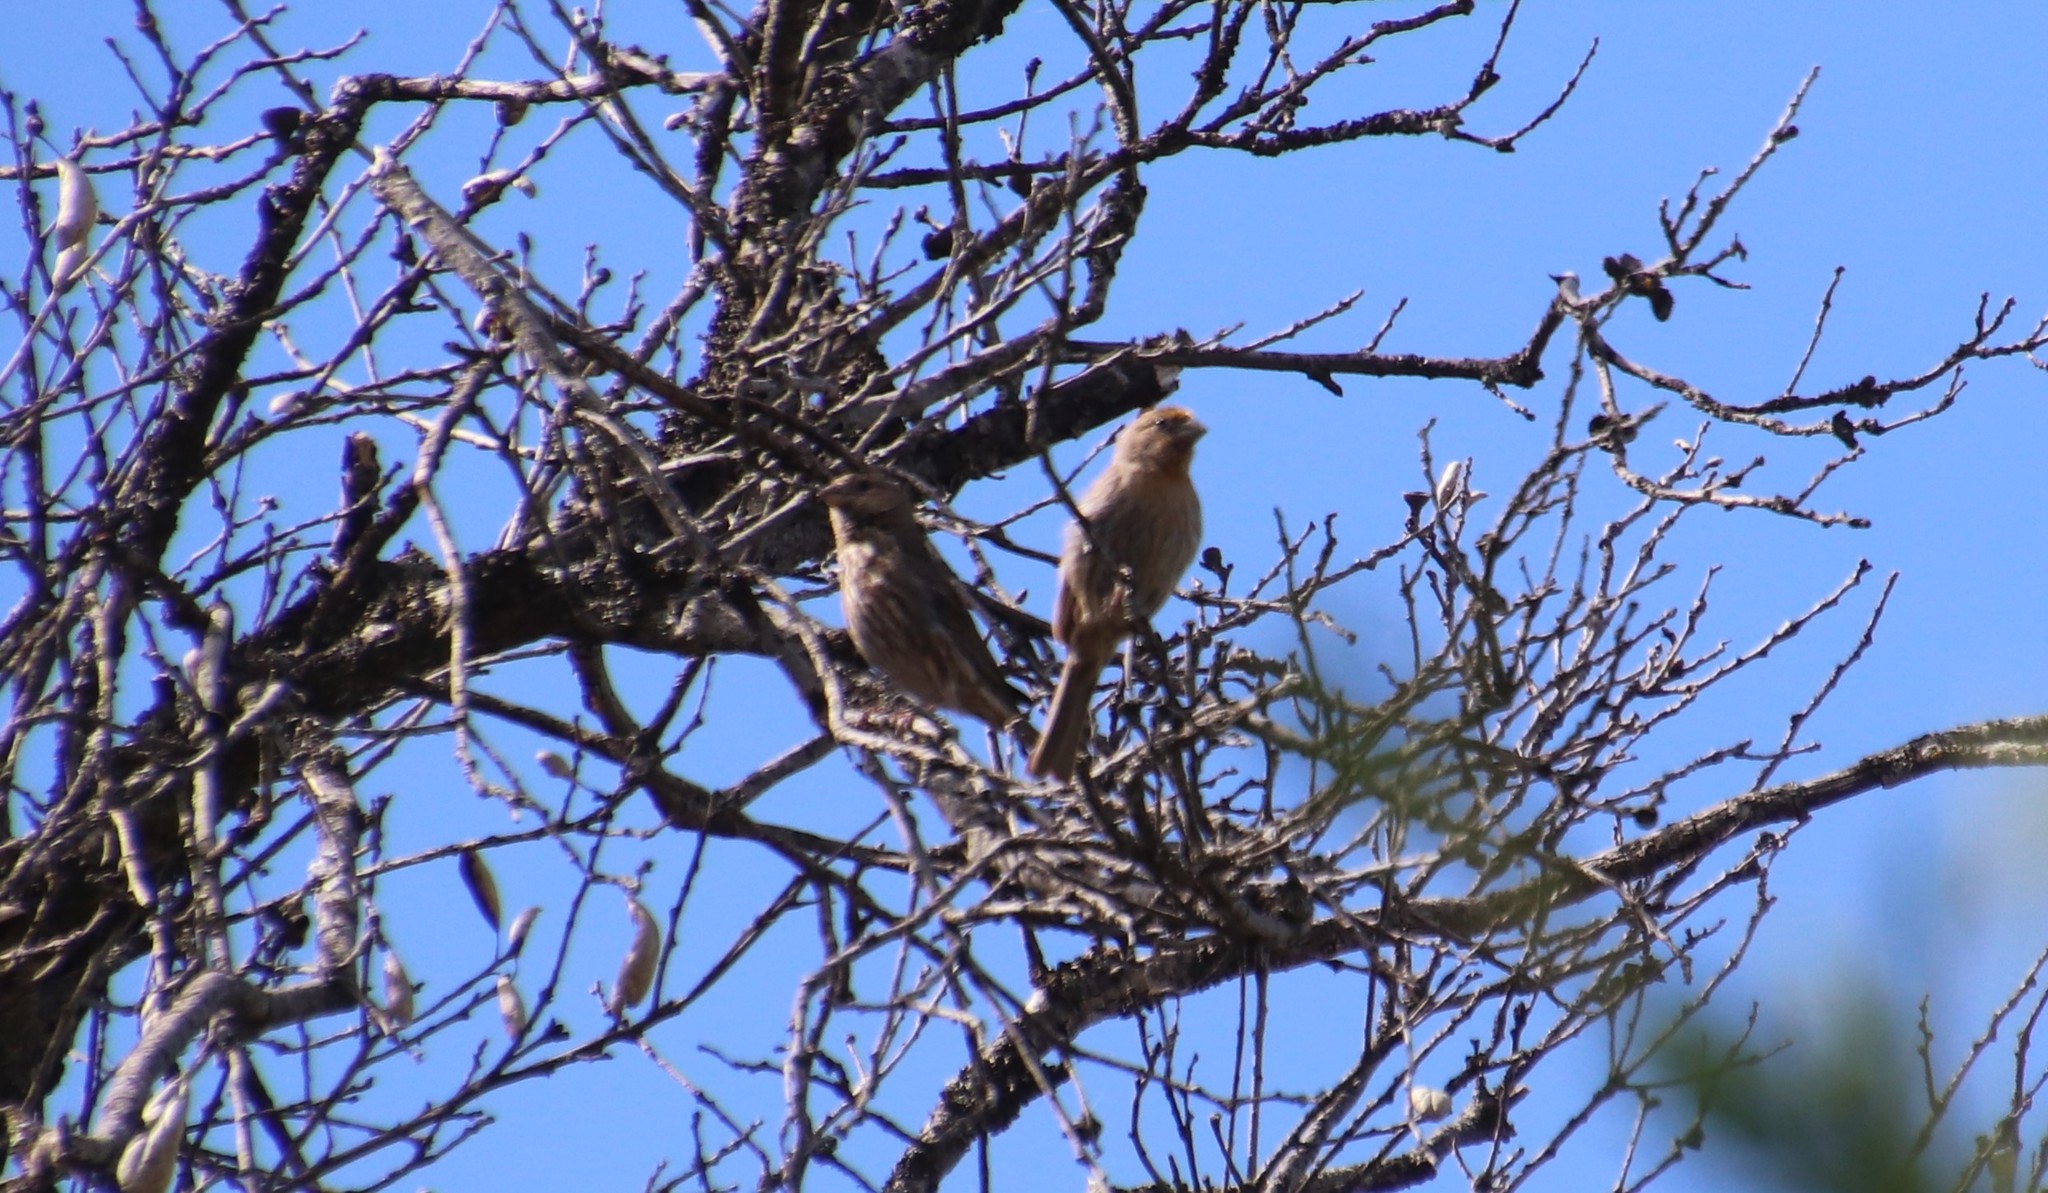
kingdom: Animalia
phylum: Chordata
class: Aves
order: Passeriformes
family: Fringillidae
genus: Haemorhous
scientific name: Haemorhous mexicanus
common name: House finch
